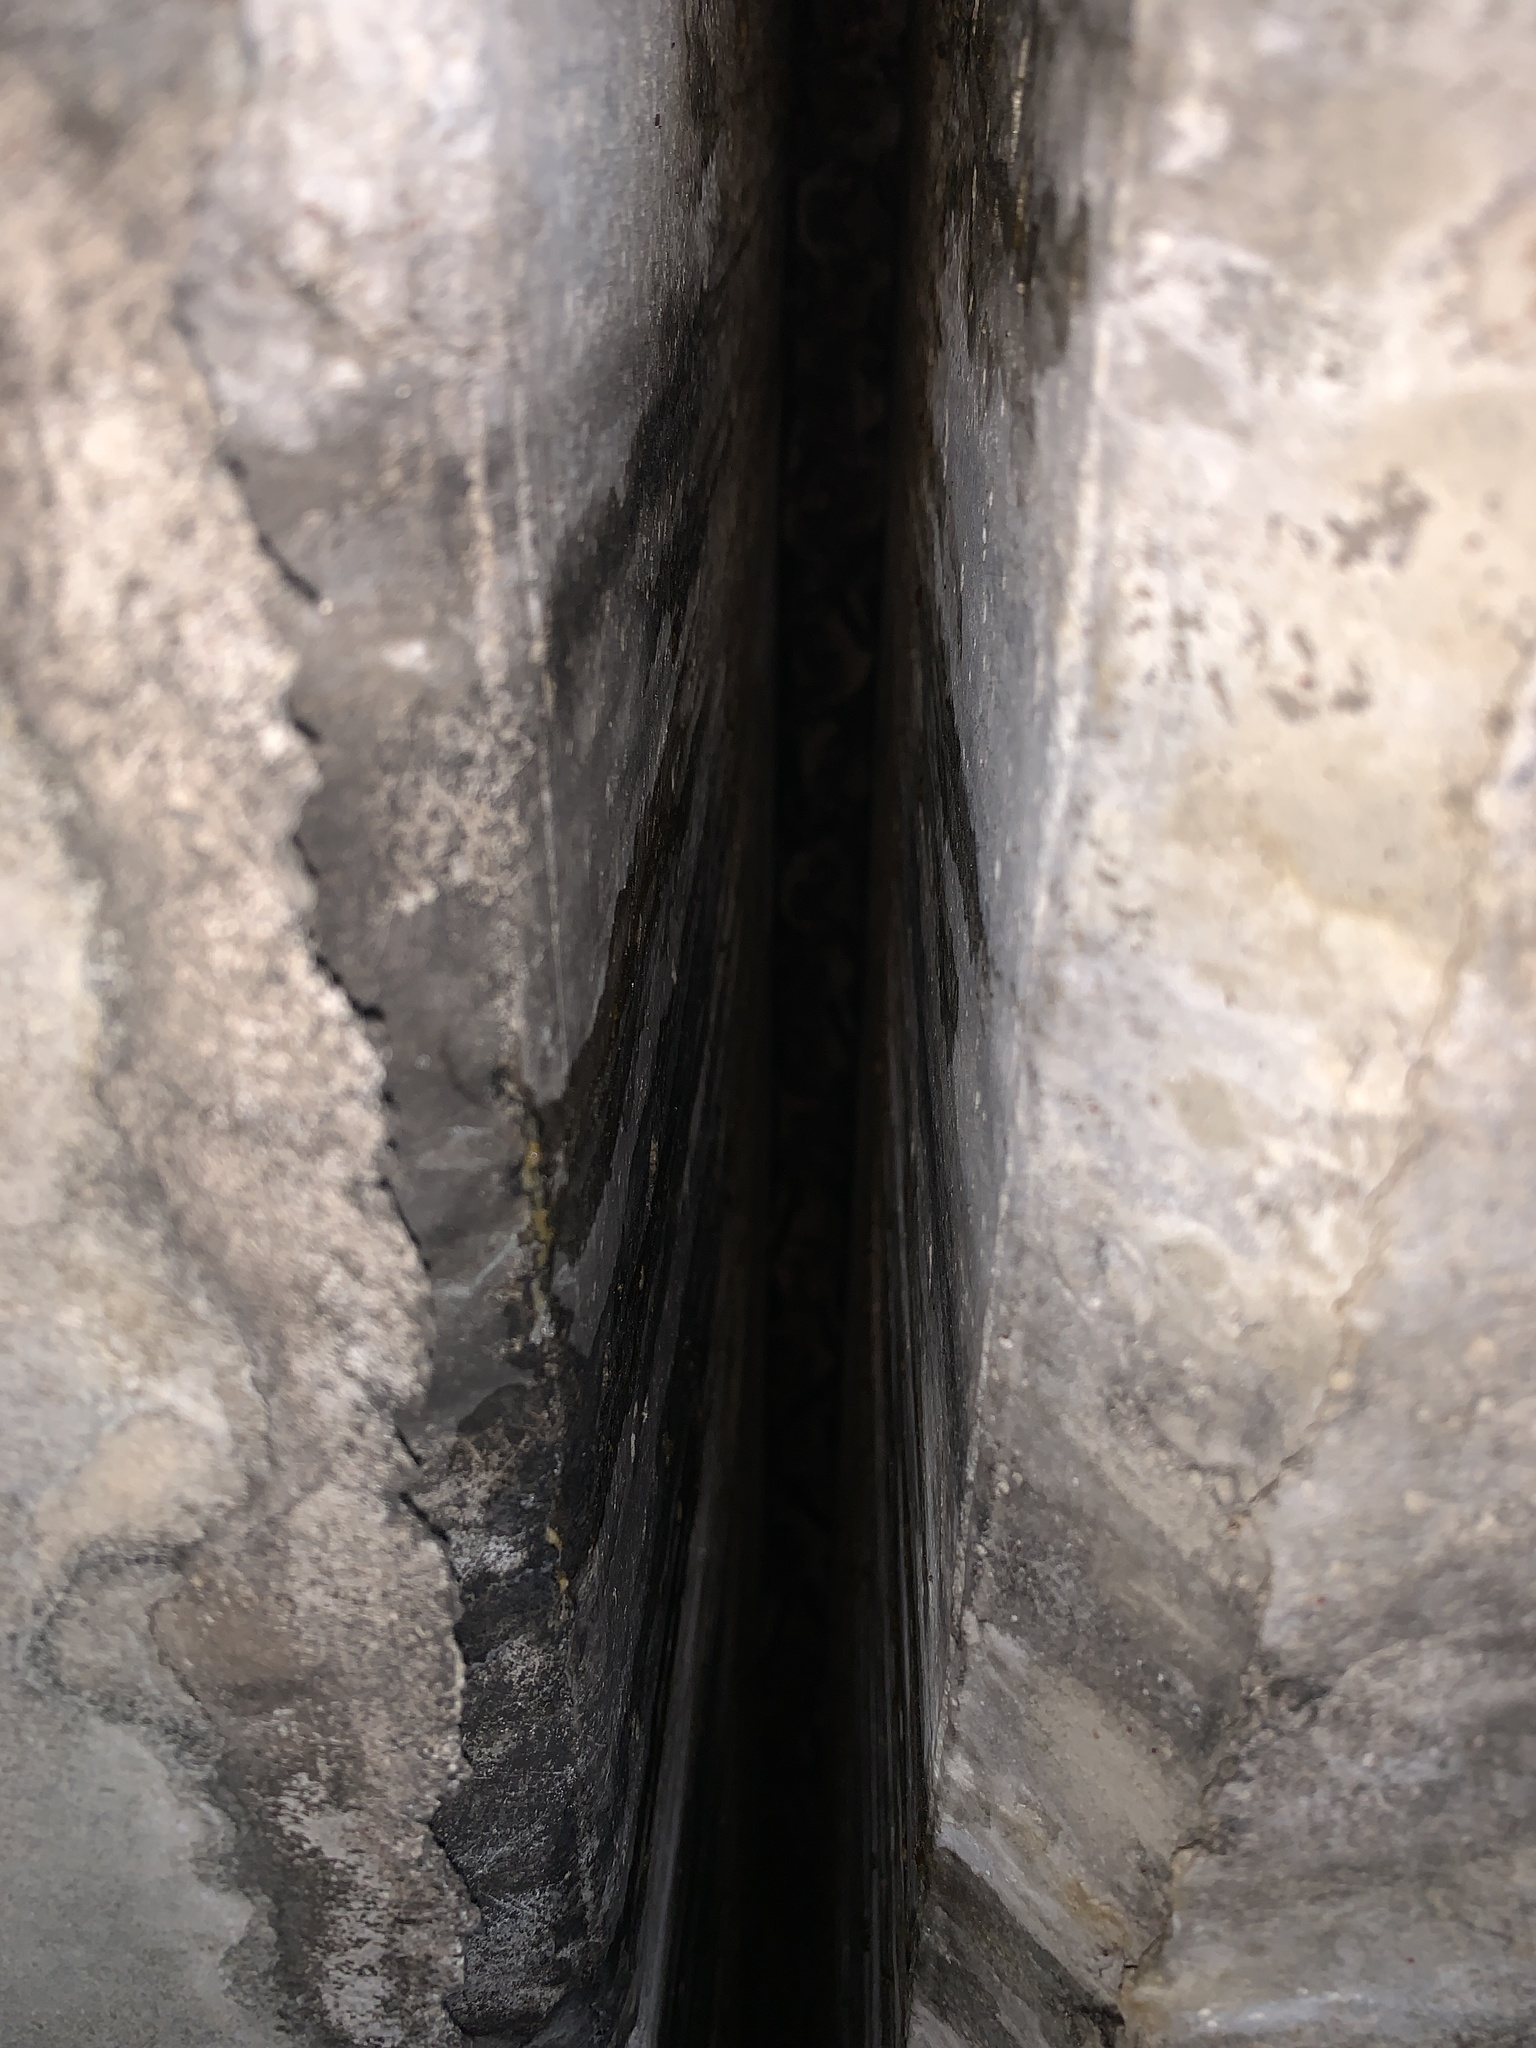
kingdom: Animalia
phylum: Chordata
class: Mammalia
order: Chiroptera
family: Molossidae
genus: Tadarida
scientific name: Tadarida brasiliensis
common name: Mexican free-tailed bat
